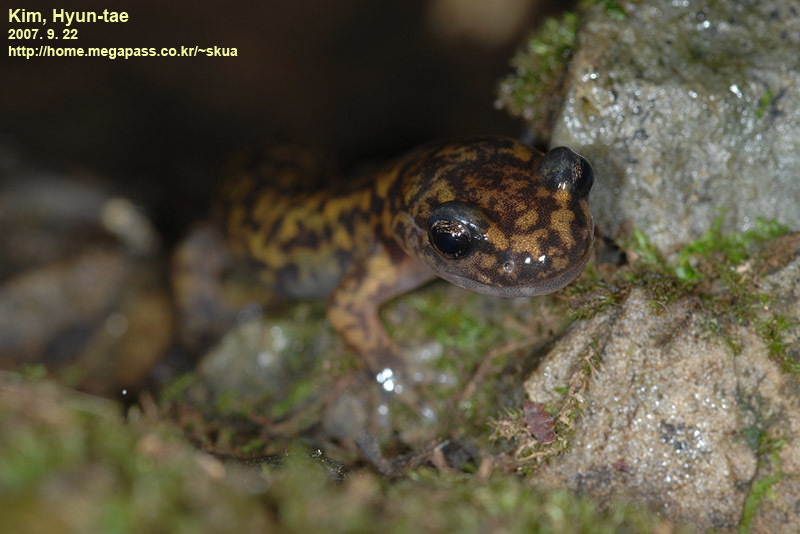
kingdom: Animalia
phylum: Chordata
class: Amphibia
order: Caudata
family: Hynobiidae
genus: Onychodactylus
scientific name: Onychodactylus koreanus
